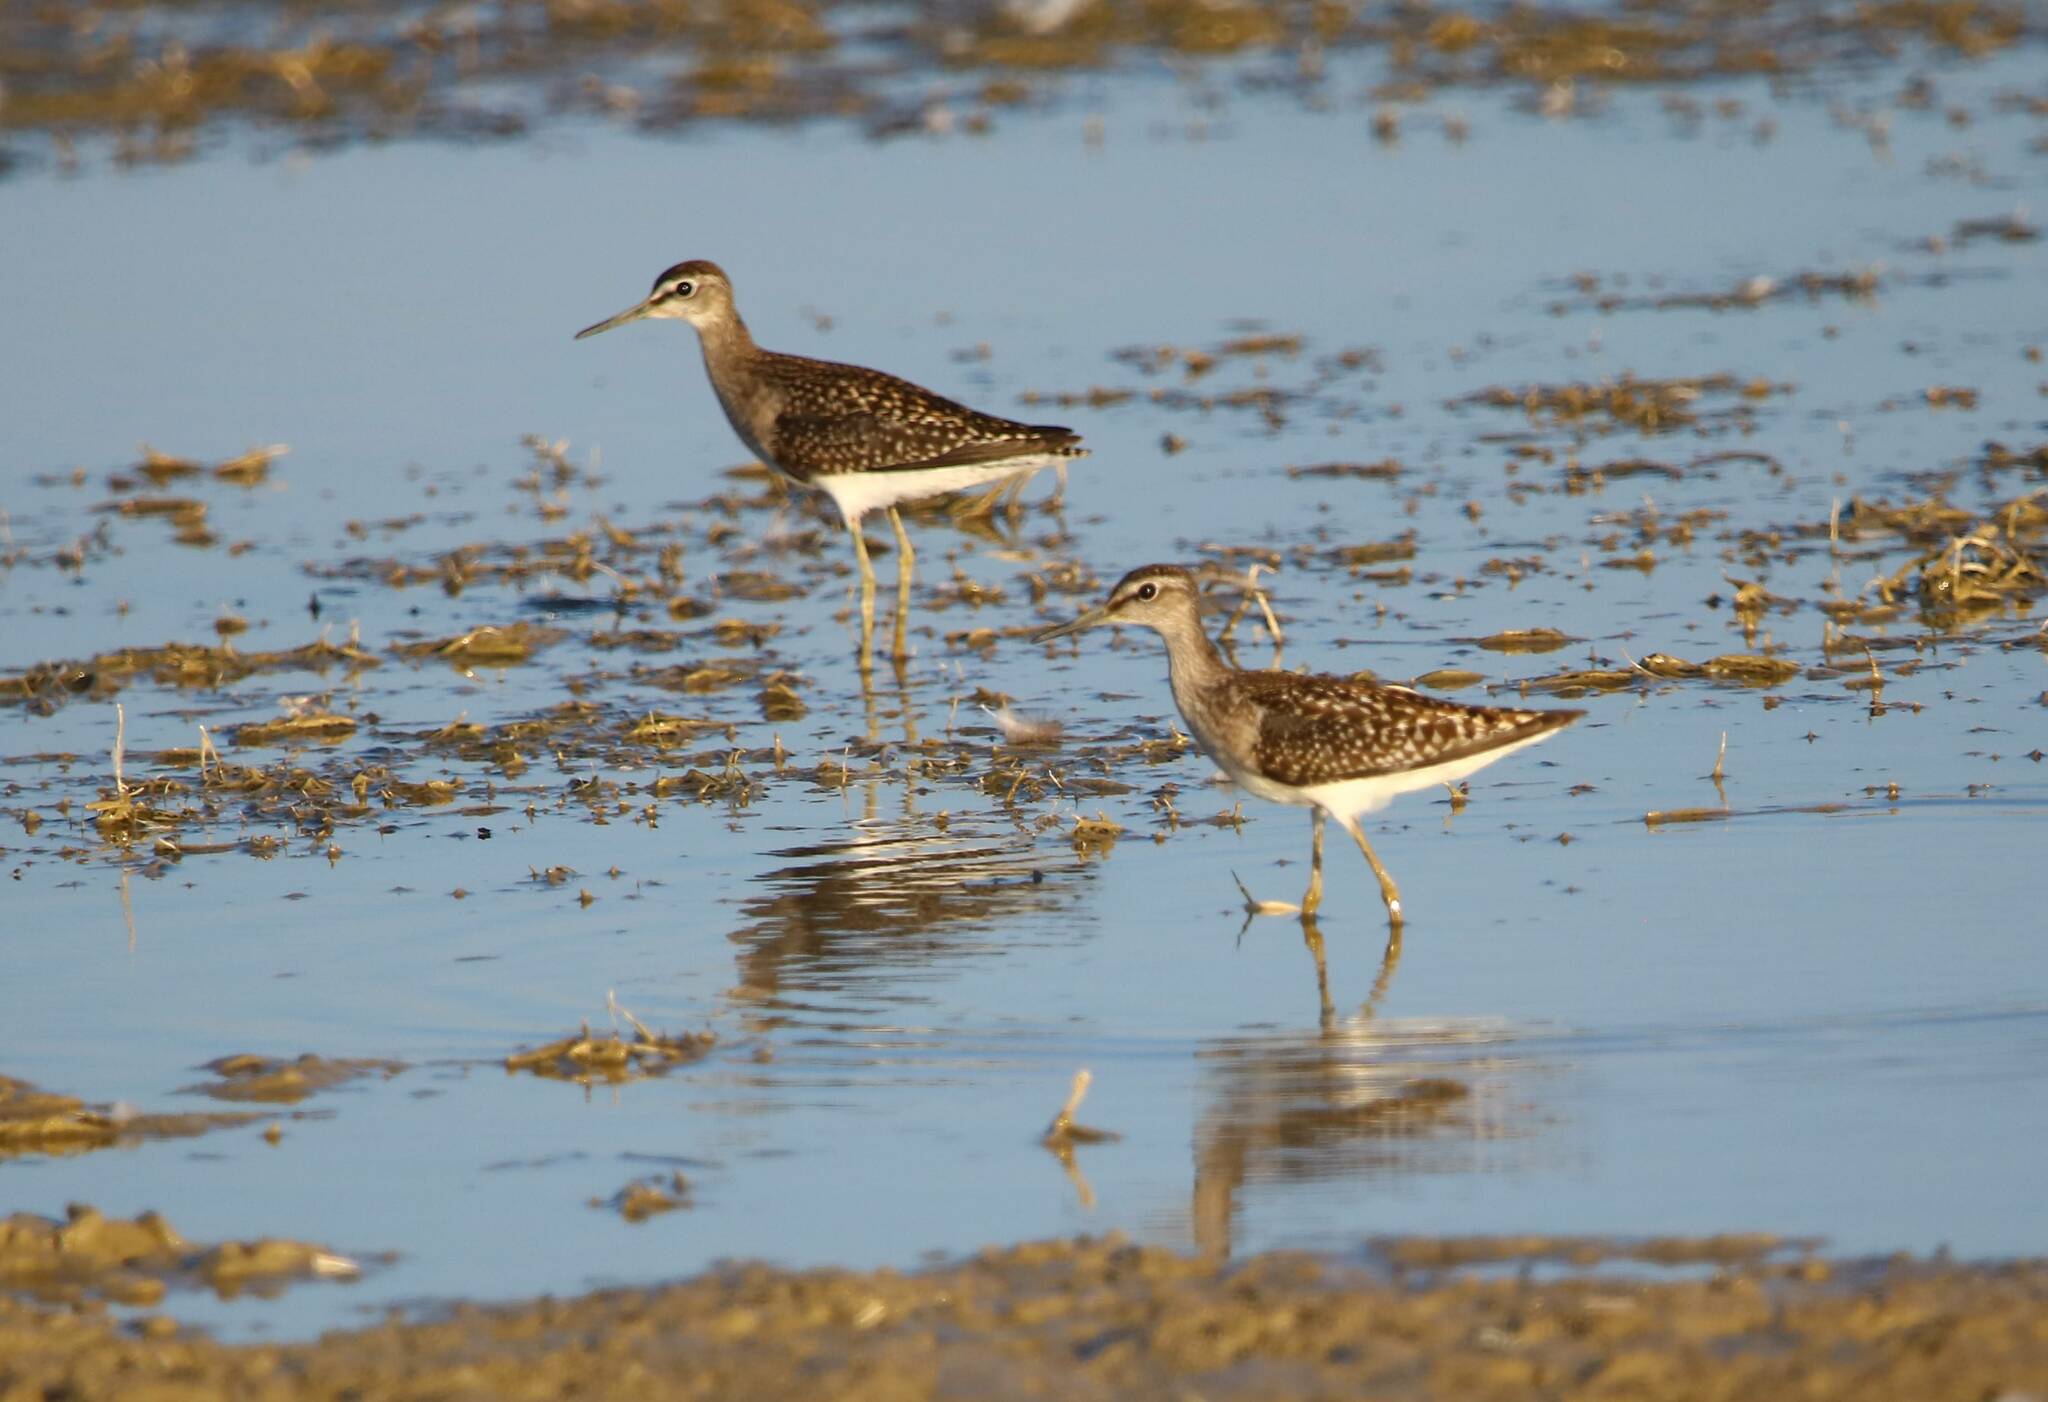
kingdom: Animalia
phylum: Chordata
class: Aves
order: Charadriiformes
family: Scolopacidae
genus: Tringa
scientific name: Tringa glareola
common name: Wood sandpiper
